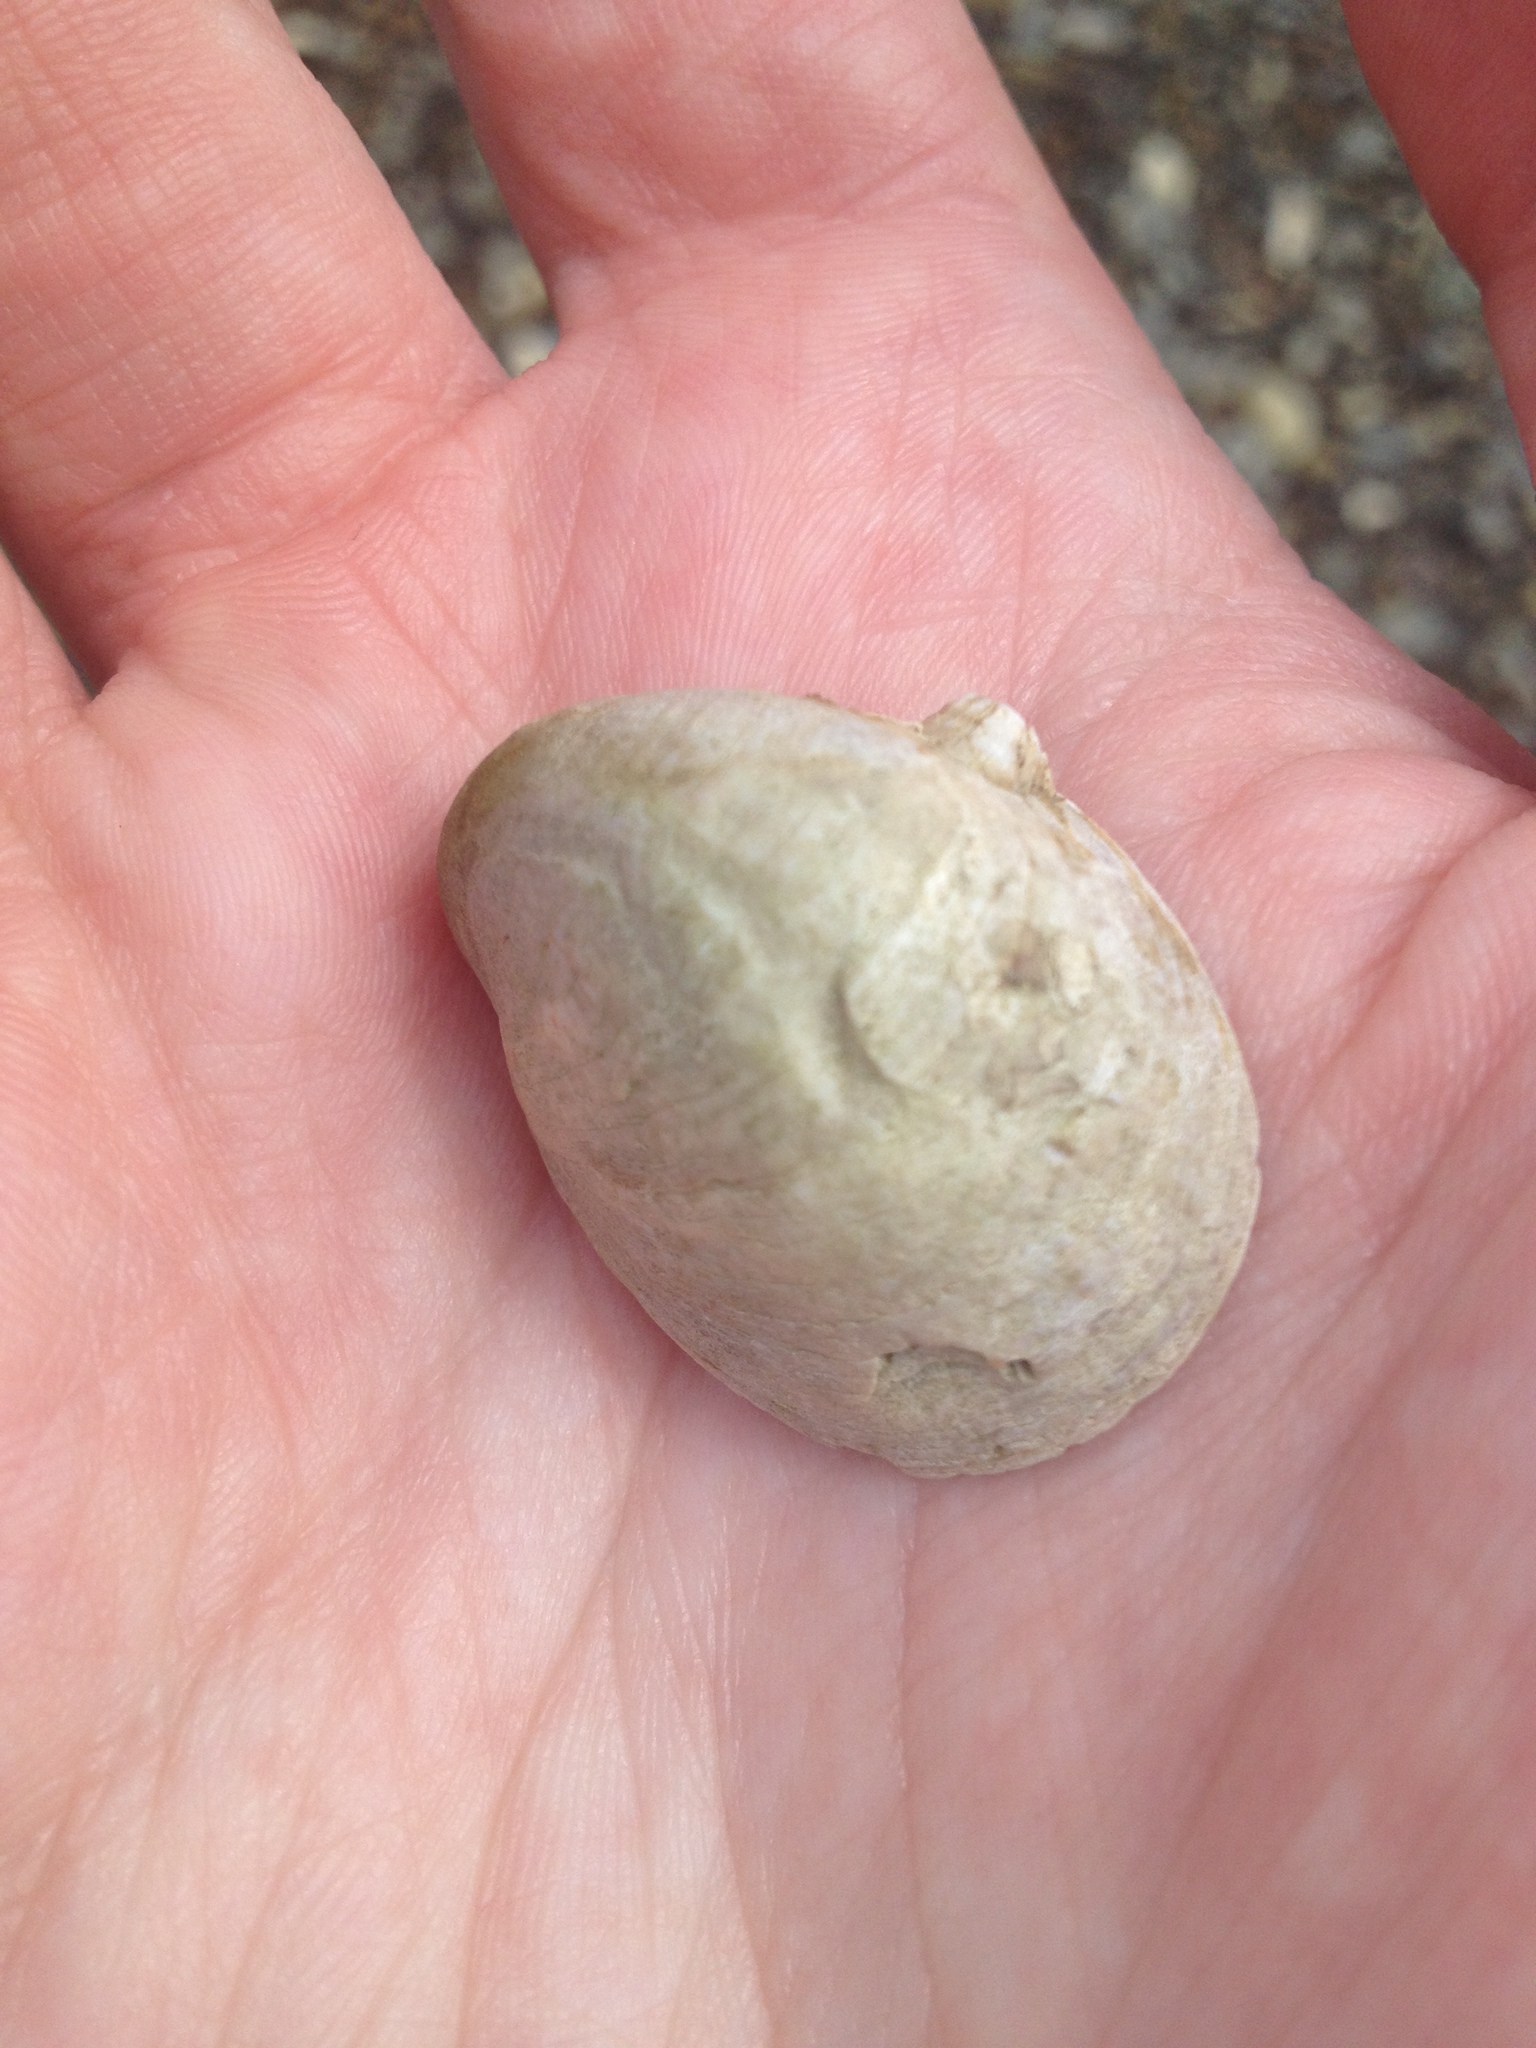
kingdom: Animalia
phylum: Mollusca
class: Gastropoda
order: Littorinimorpha
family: Calyptraeidae
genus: Crepidula
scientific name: Crepidula fornicata
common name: Slipper limpet
